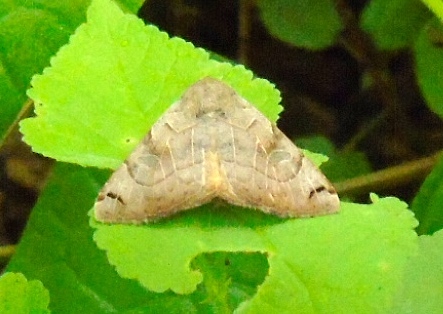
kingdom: Animalia
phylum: Arthropoda
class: Insecta
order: Lepidoptera
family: Erebidae
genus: Isogona
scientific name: Isogona scindens
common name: Owlet moth
